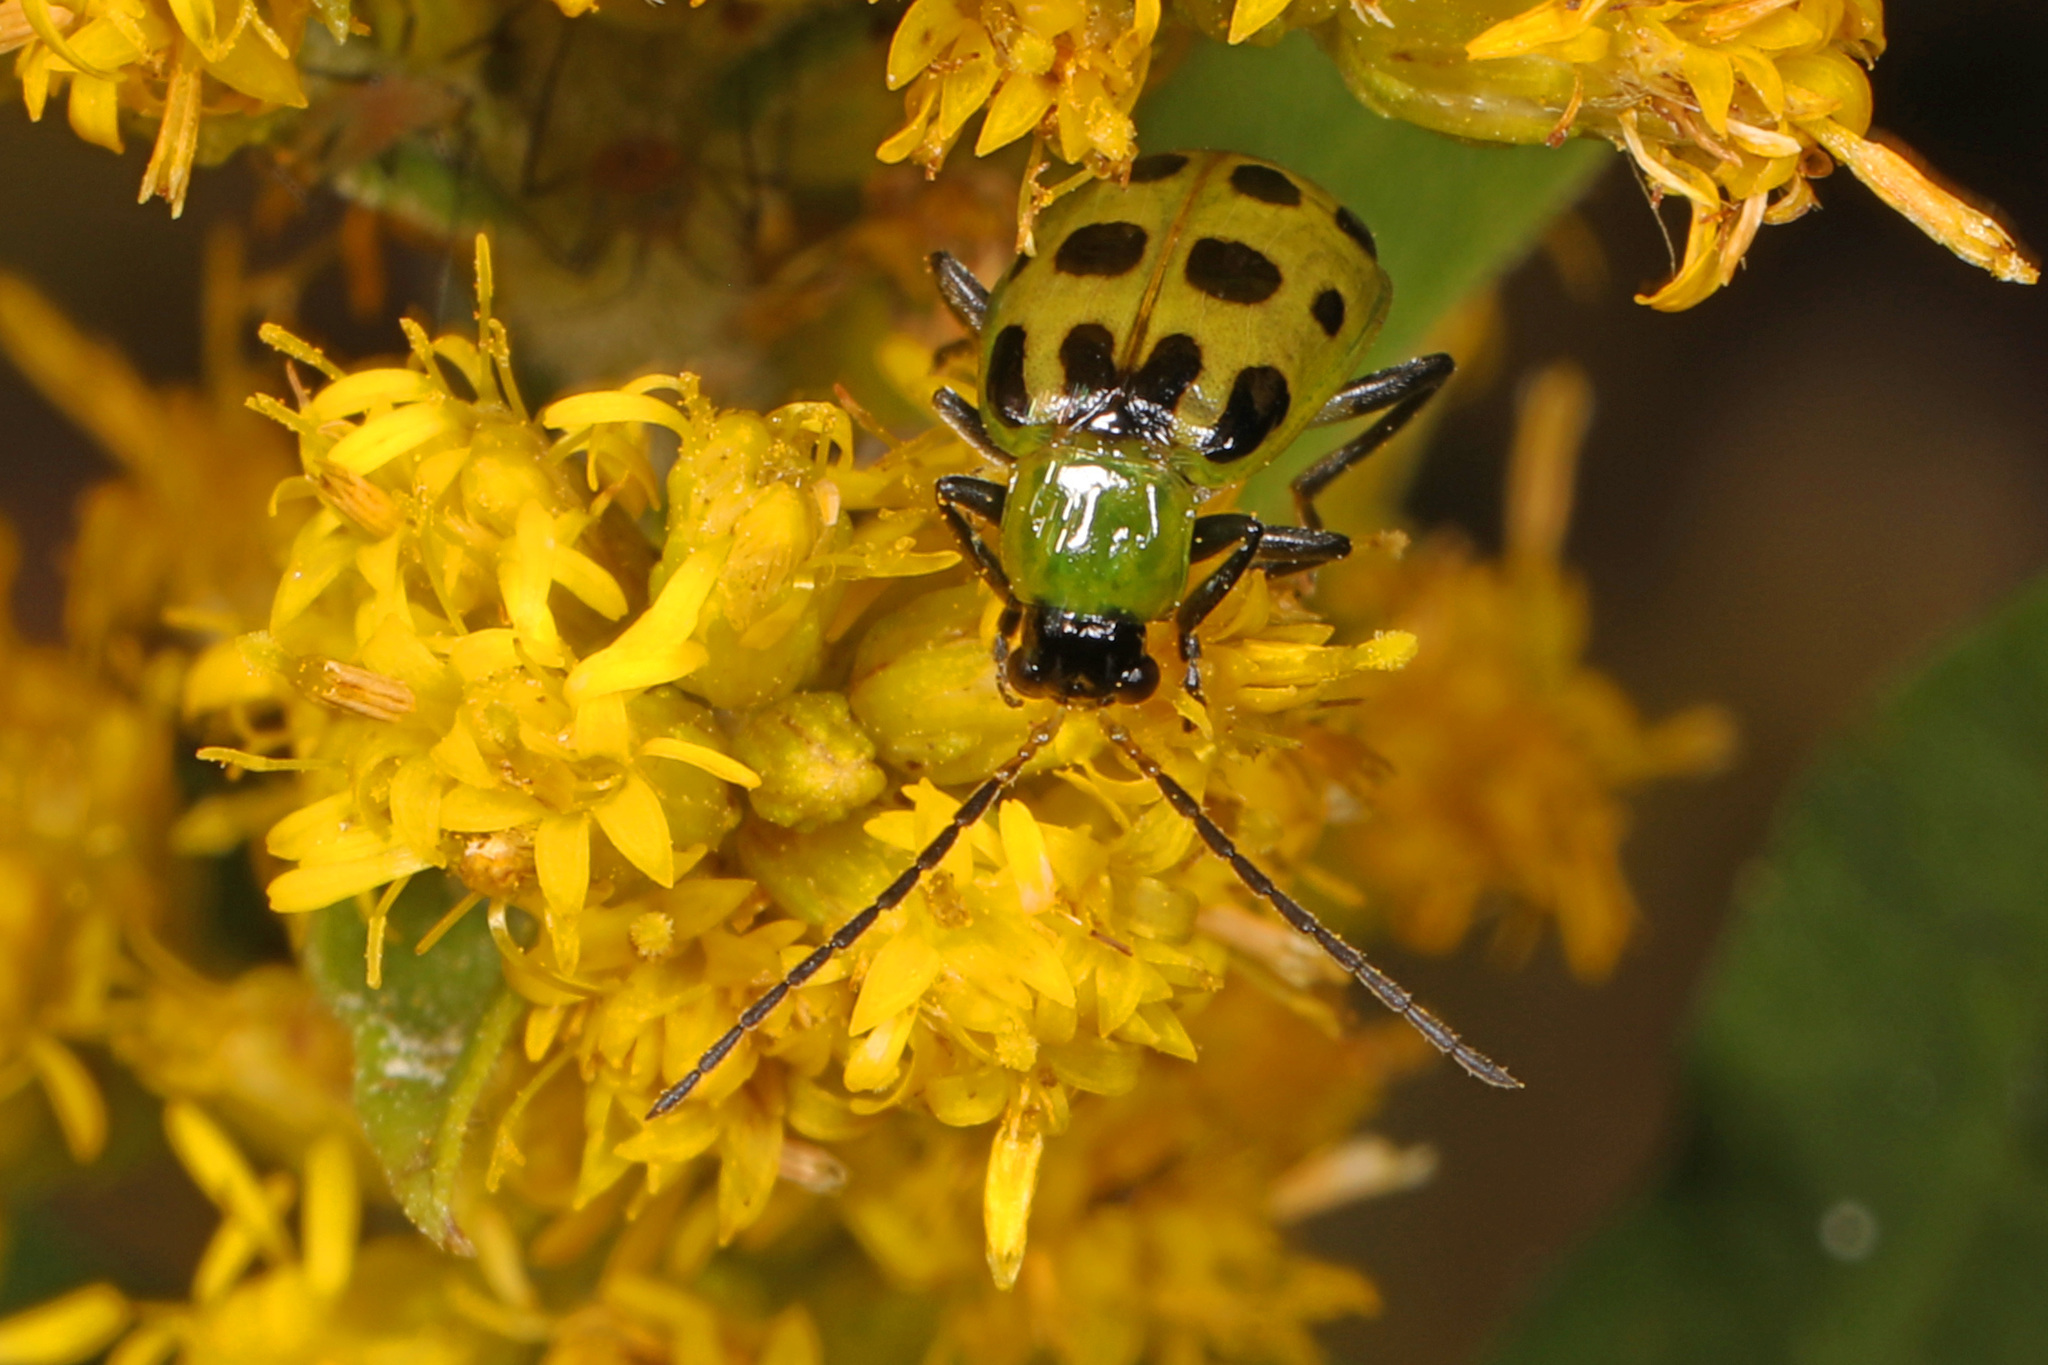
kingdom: Animalia
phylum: Arthropoda
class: Insecta
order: Coleoptera
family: Chrysomelidae
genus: Diabrotica
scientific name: Diabrotica undecimpunctata
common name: Spotted cucumber beetle
